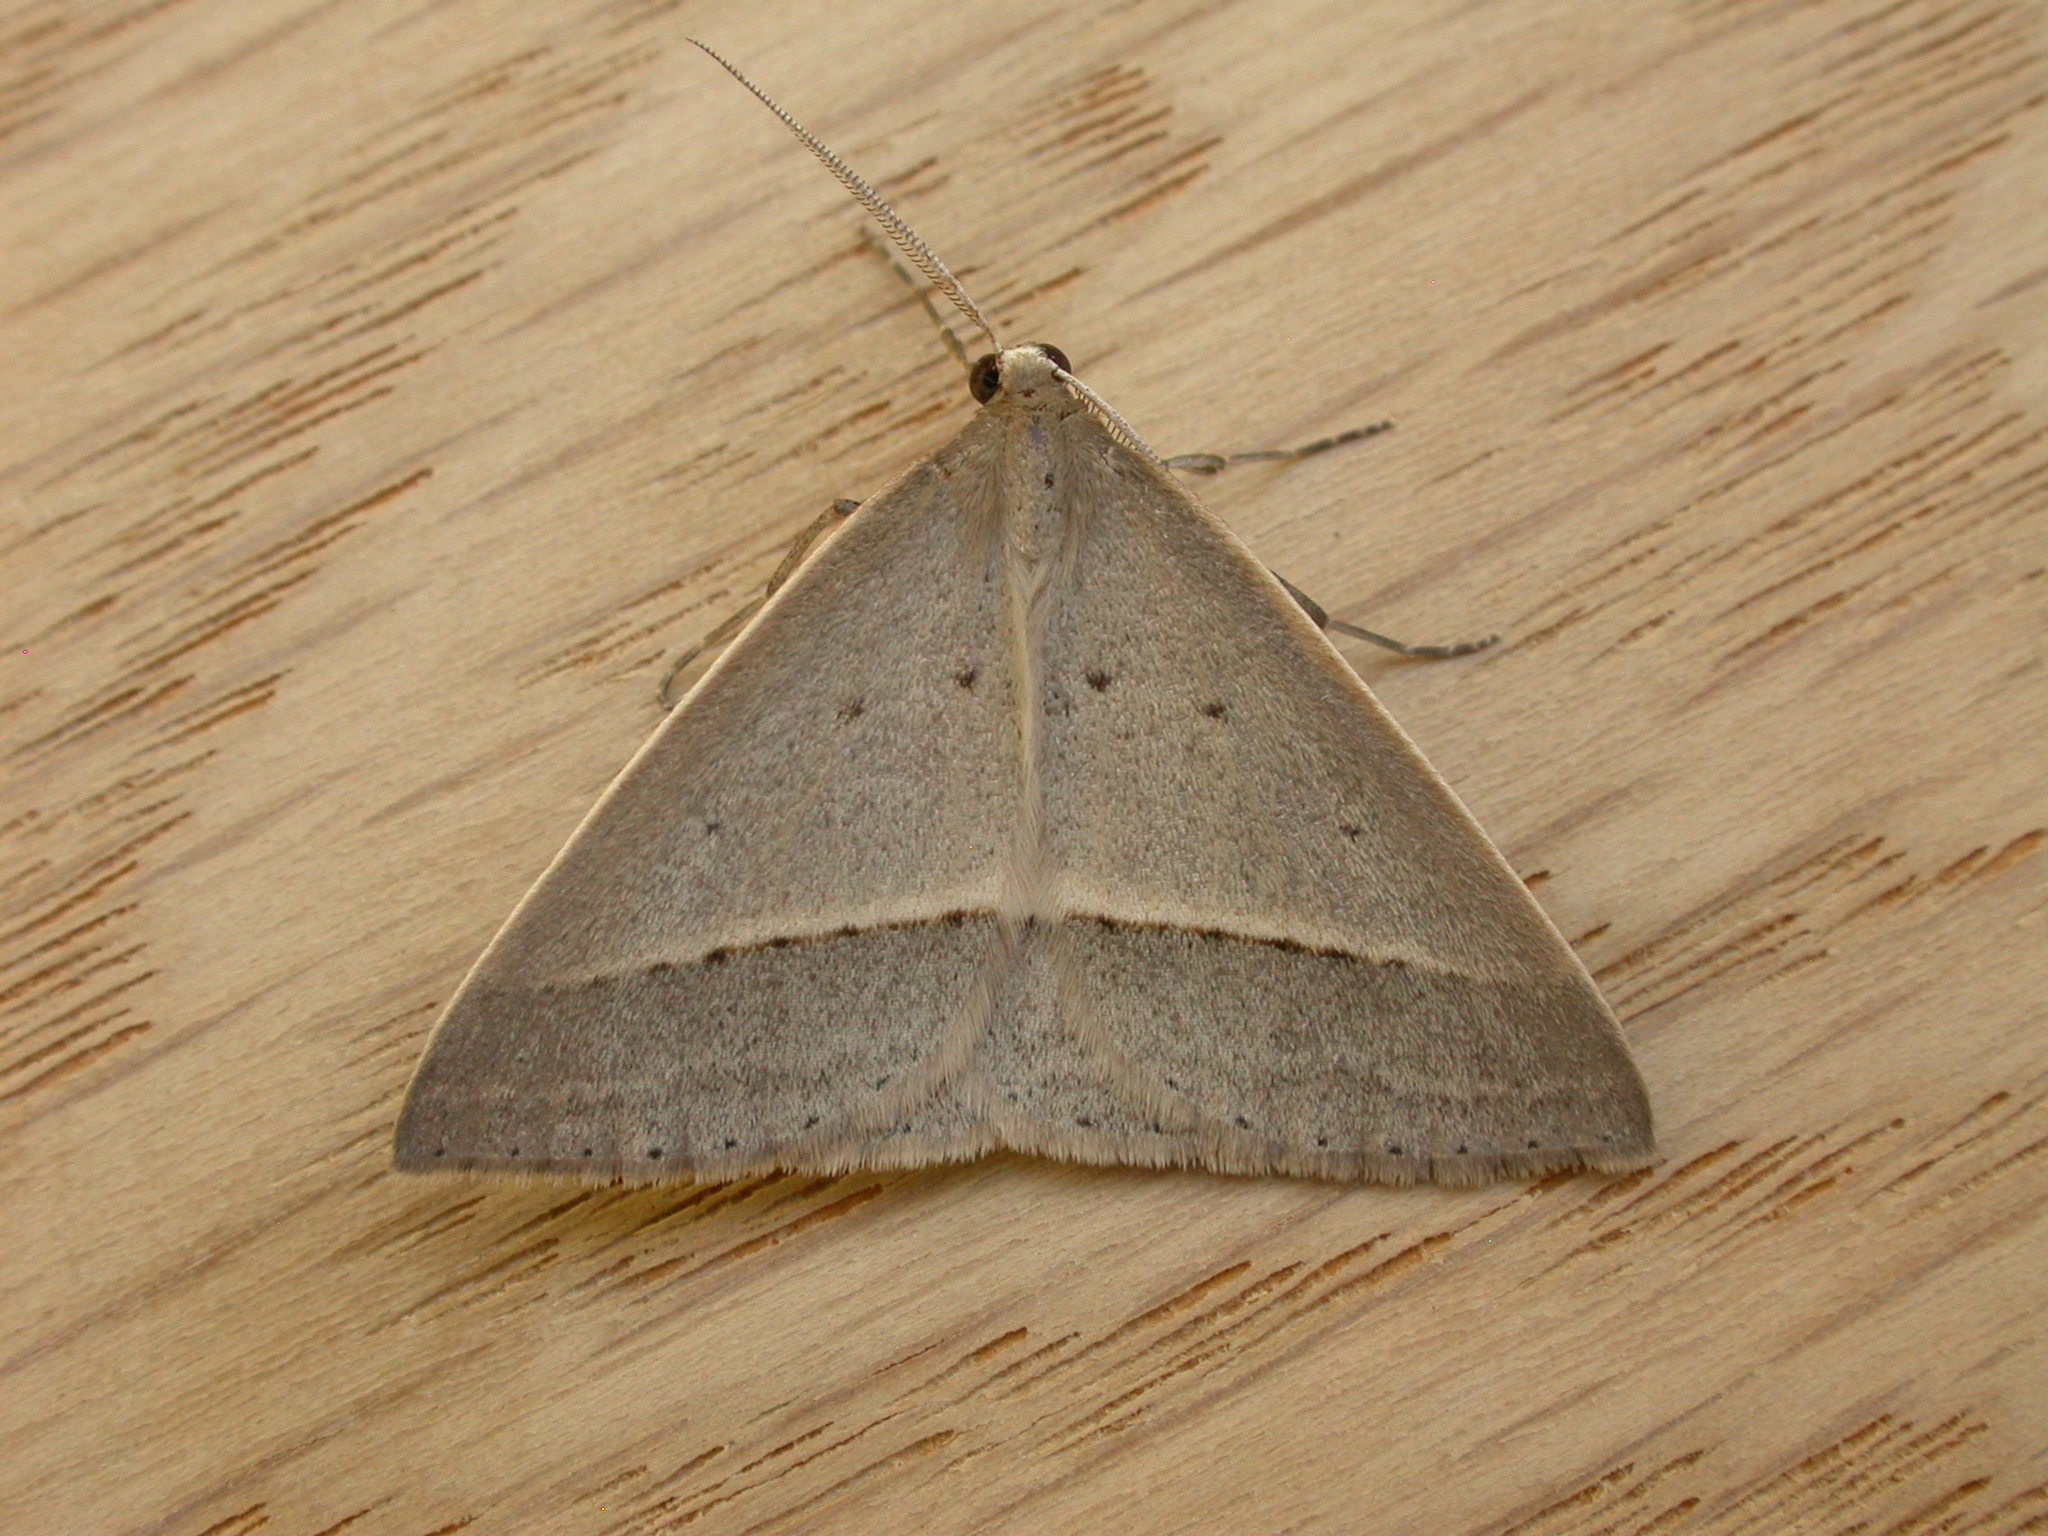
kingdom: Animalia
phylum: Arthropoda
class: Insecta
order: Lepidoptera
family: Geometridae
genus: Epidesmia
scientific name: Epidesmia perfabricata
